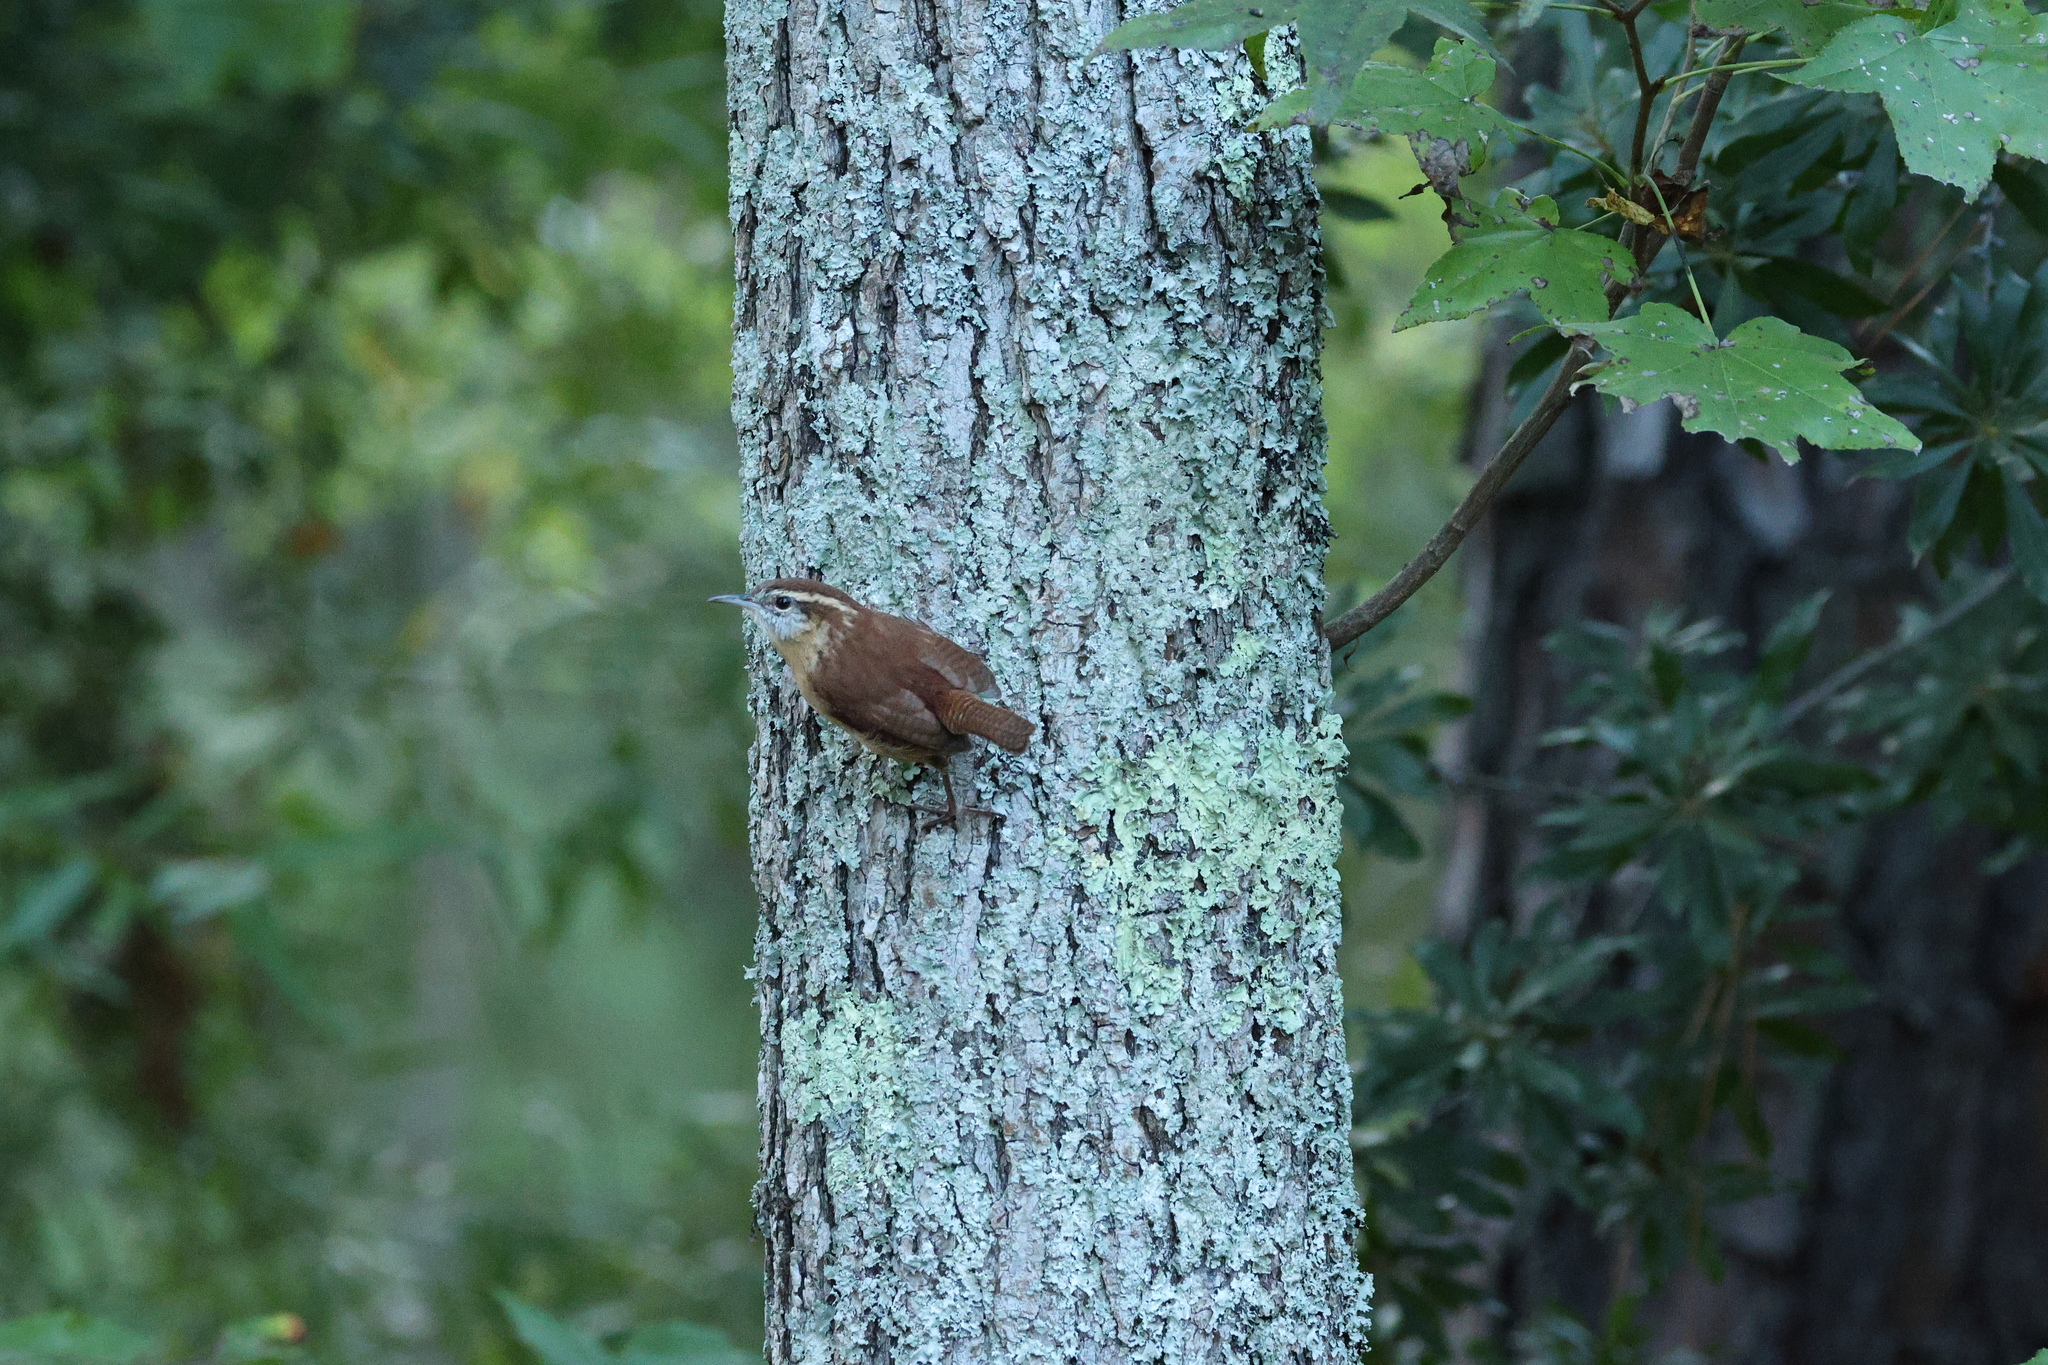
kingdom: Animalia
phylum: Chordata
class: Aves
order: Passeriformes
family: Troglodytidae
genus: Thryothorus
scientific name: Thryothorus ludovicianus
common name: Carolina wren
